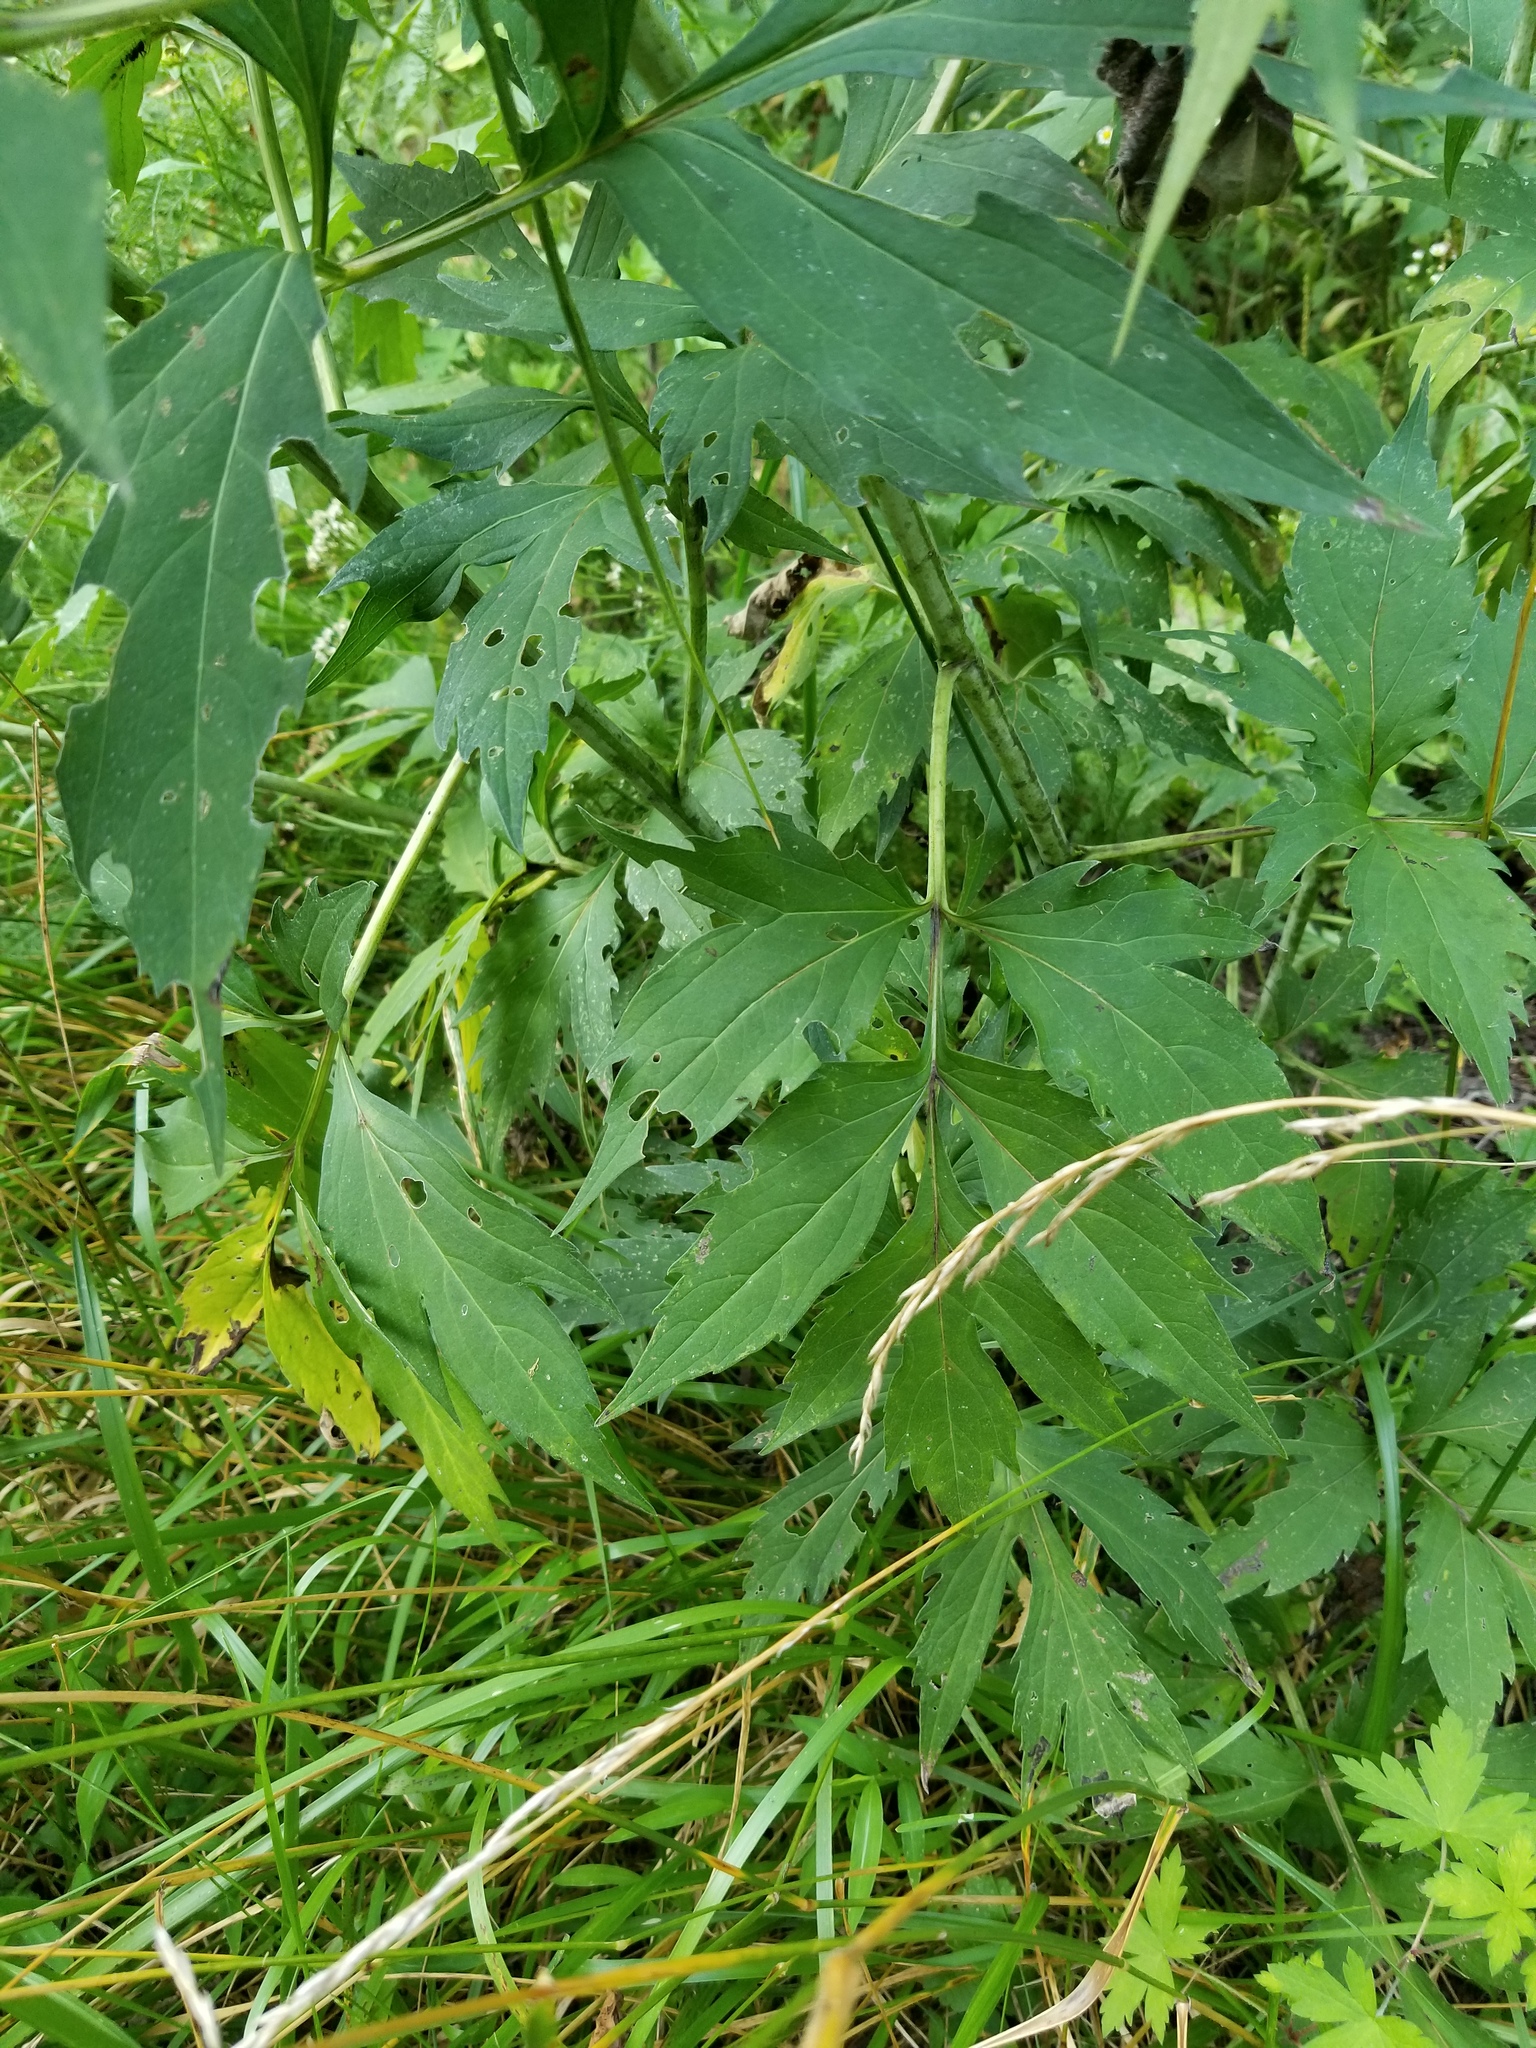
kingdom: Plantae
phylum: Tracheophyta
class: Magnoliopsida
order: Asterales
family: Asteraceae
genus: Rudbeckia
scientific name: Rudbeckia laciniata
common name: Coneflower
